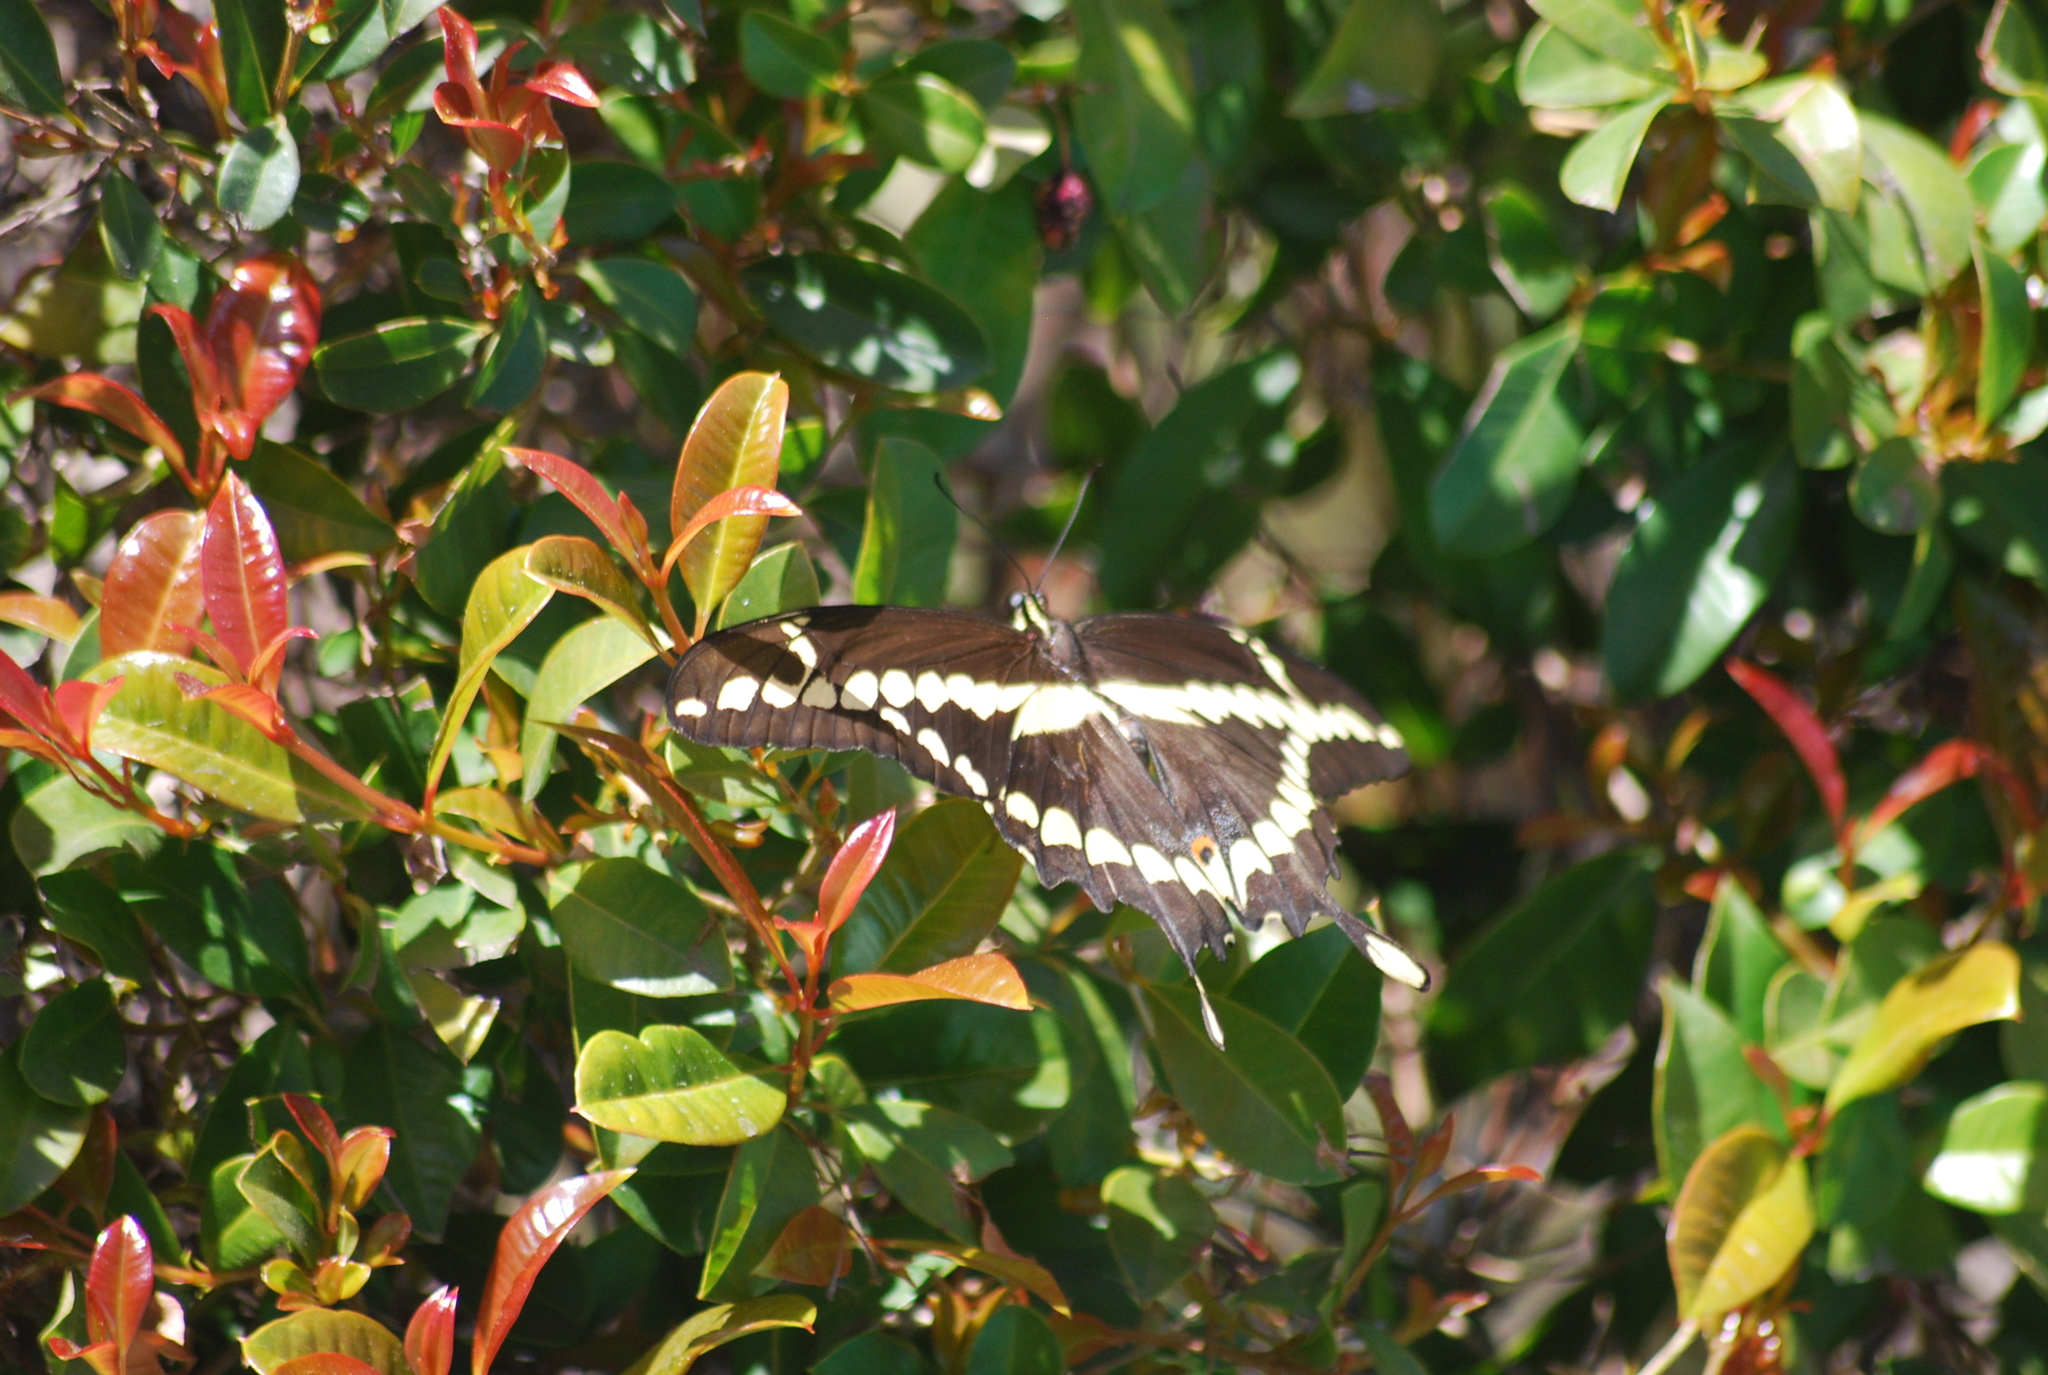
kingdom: Animalia
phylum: Arthropoda
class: Insecta
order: Lepidoptera
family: Papilionidae
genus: Papilio
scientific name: Papilio rumiko
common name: Western giant swallowtail
